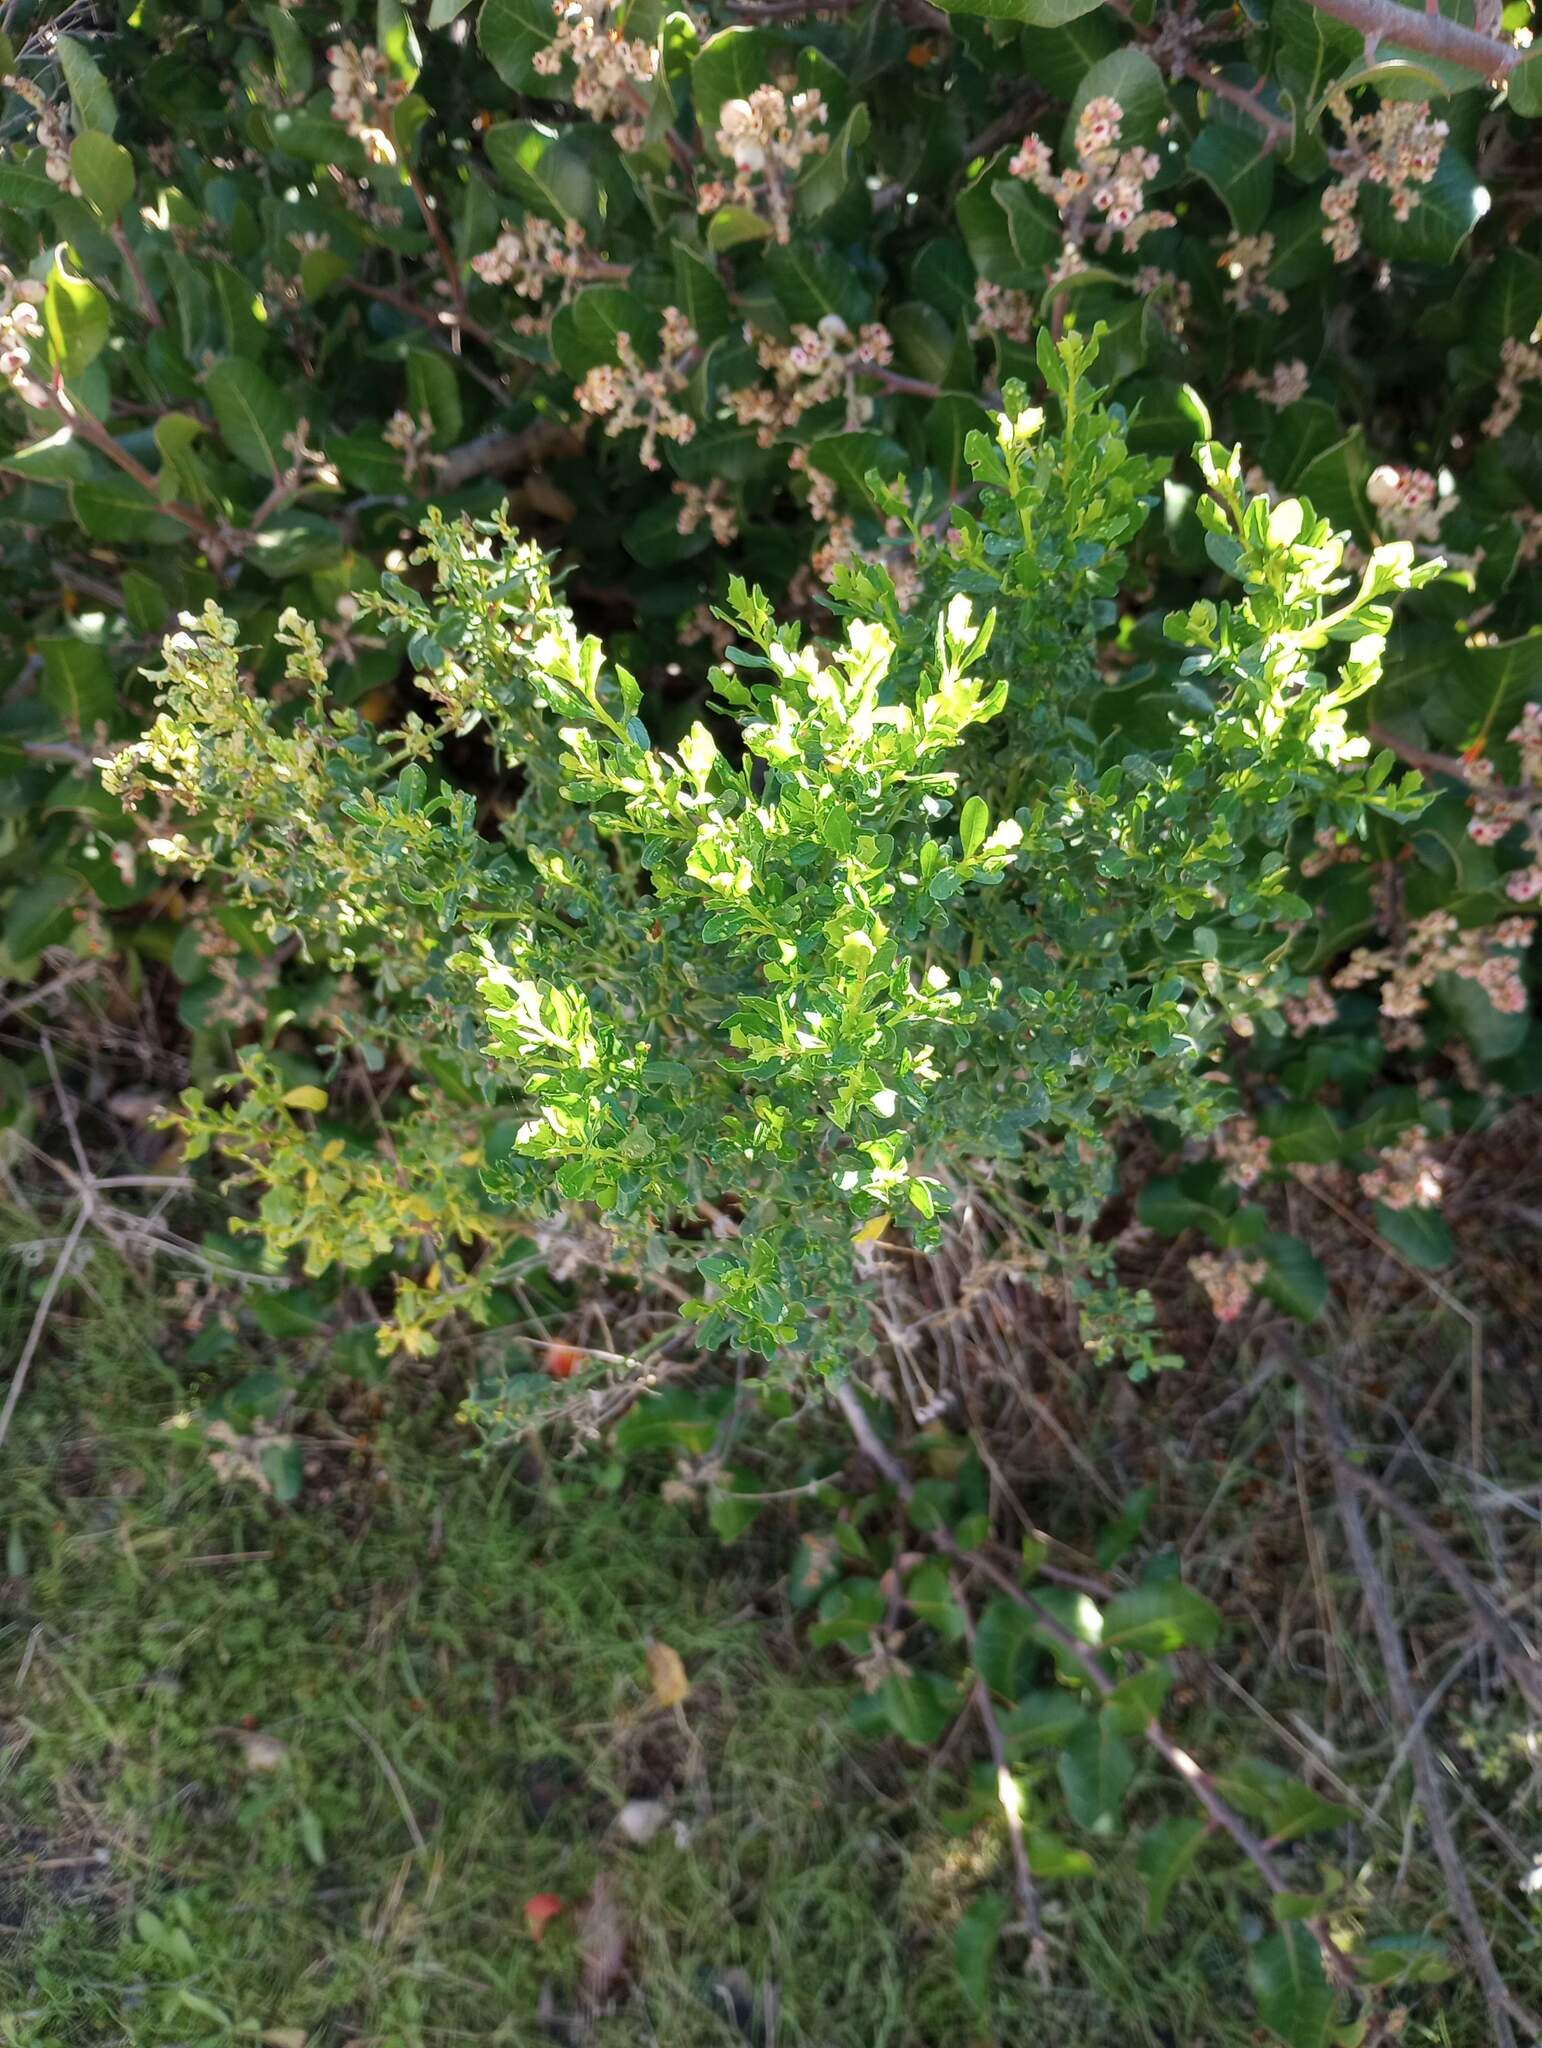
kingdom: Plantae
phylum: Tracheophyta
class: Magnoliopsida
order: Asterales
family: Asteraceae
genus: Baccharis
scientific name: Baccharis pilularis
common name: Coyotebrush
